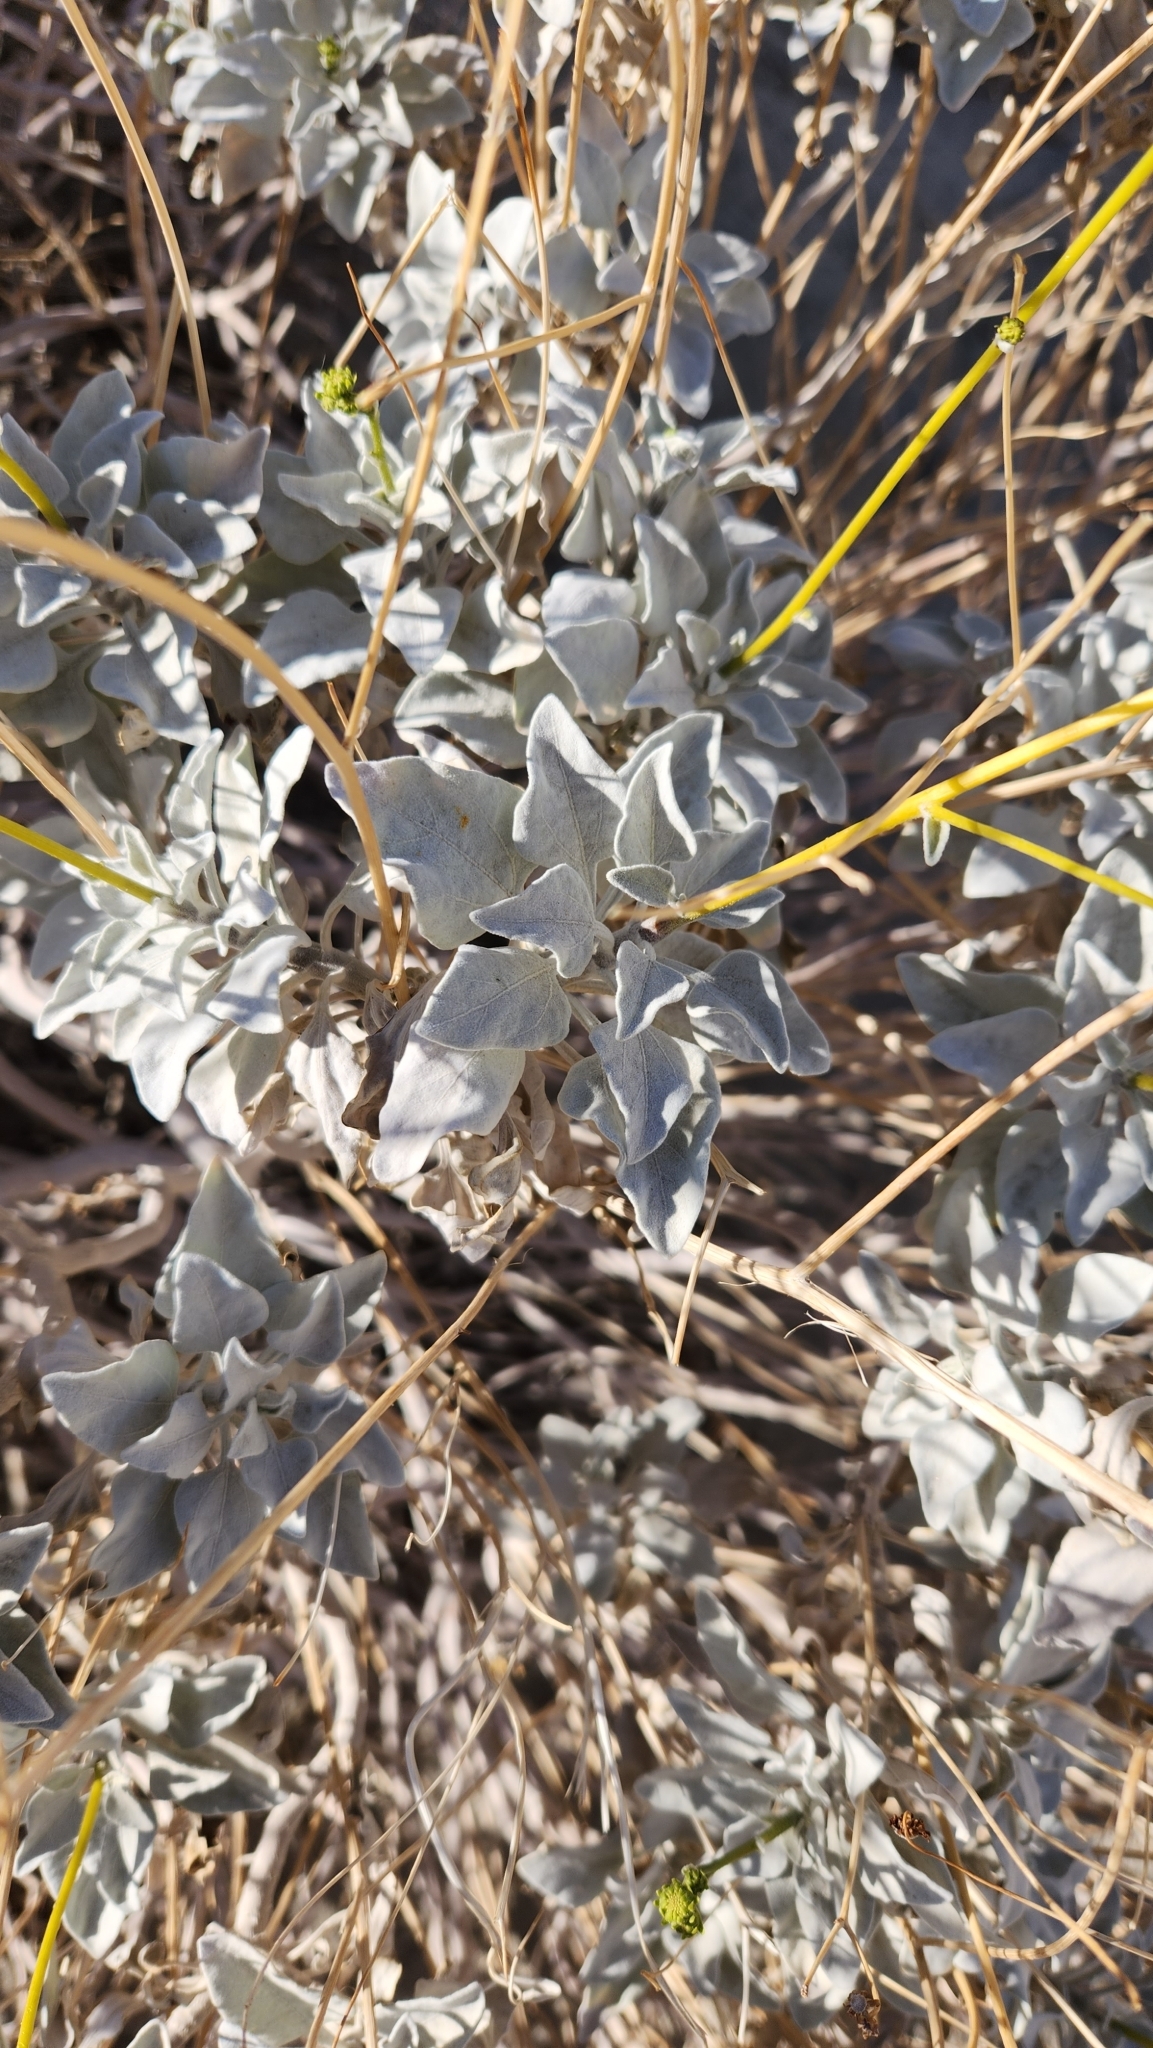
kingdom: Plantae
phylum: Tracheophyta
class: Magnoliopsida
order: Asterales
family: Asteraceae
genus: Encelia
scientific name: Encelia farinosa
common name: Brittlebush
